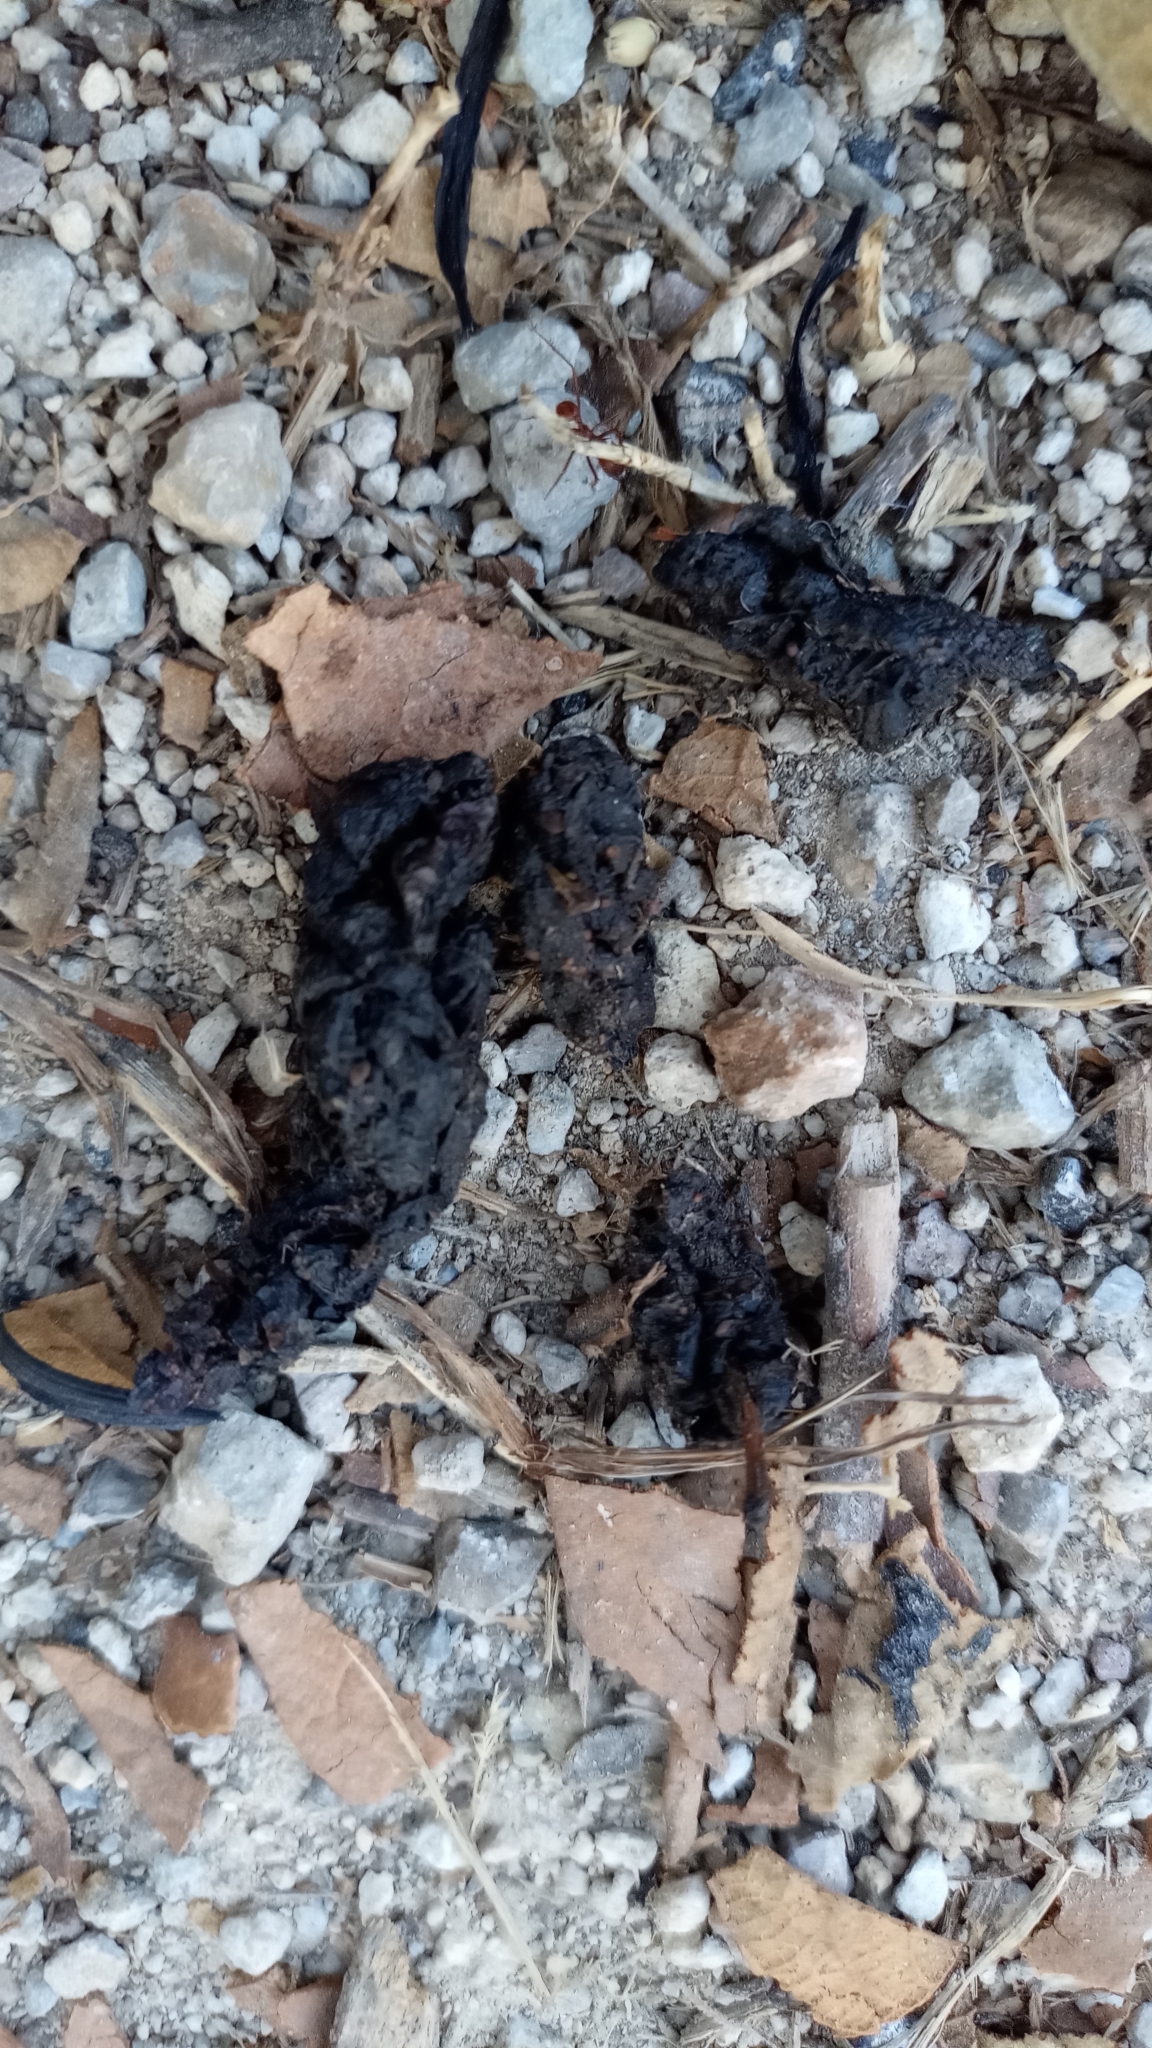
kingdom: Animalia
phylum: Chordata
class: Mammalia
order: Carnivora
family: Canidae
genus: Urocyon
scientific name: Urocyon cinereoargenteus
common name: Gray fox
